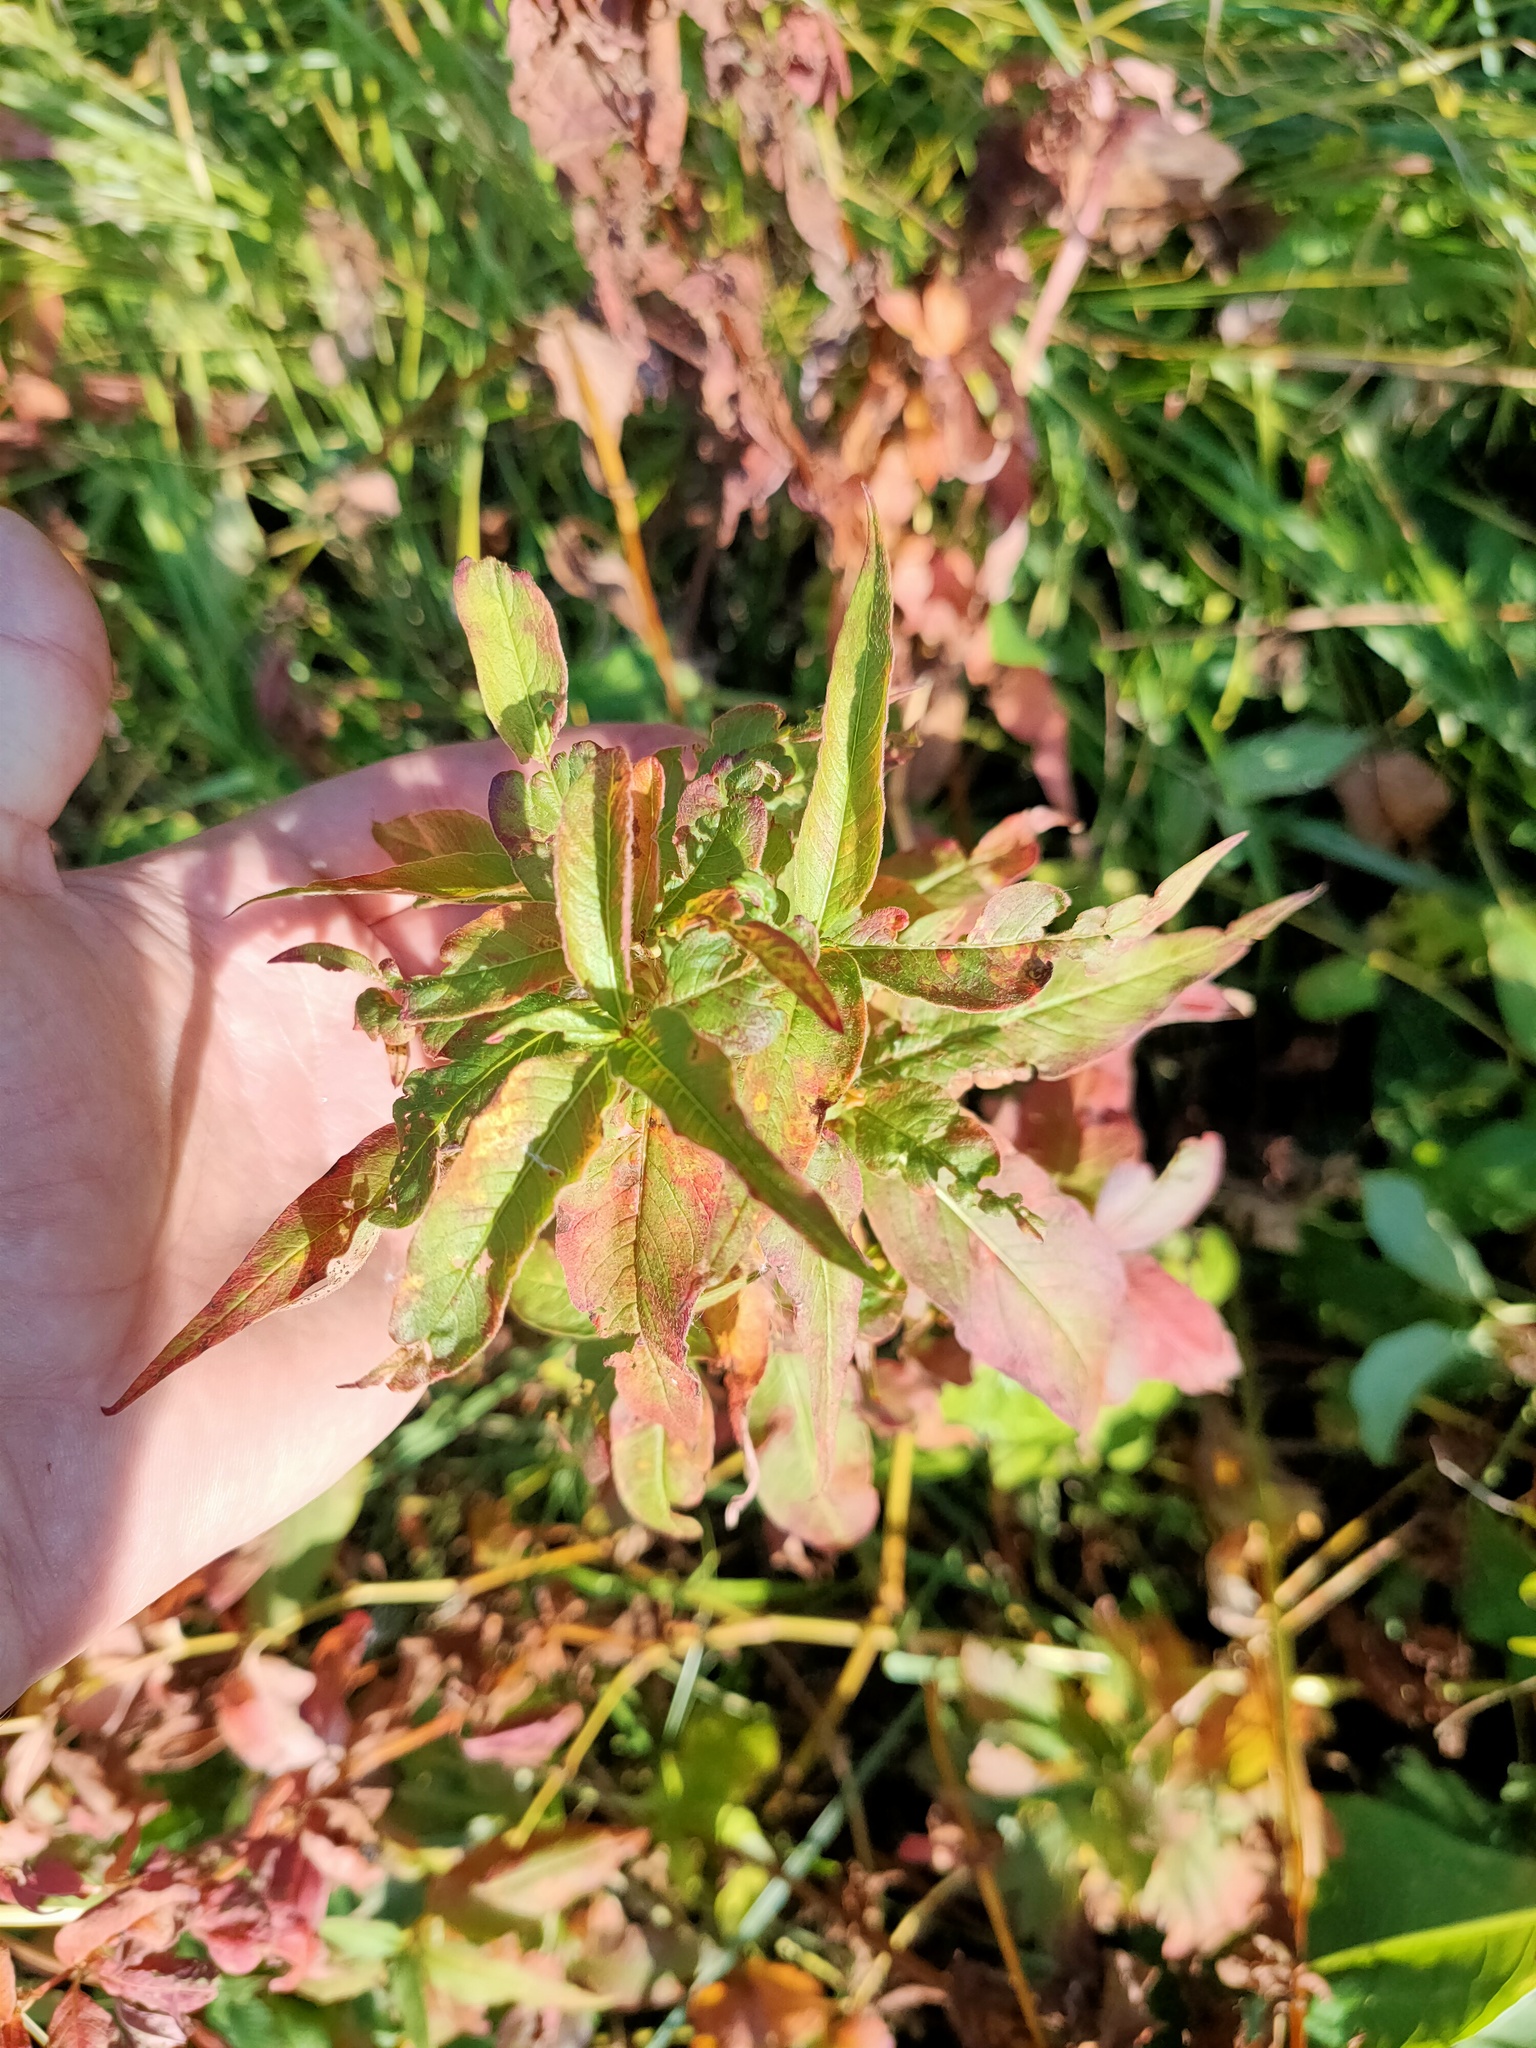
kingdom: Plantae
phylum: Tracheophyta
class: Magnoliopsida
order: Caryophyllales
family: Polygonaceae
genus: Koenigia
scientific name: Koenigia alpina
